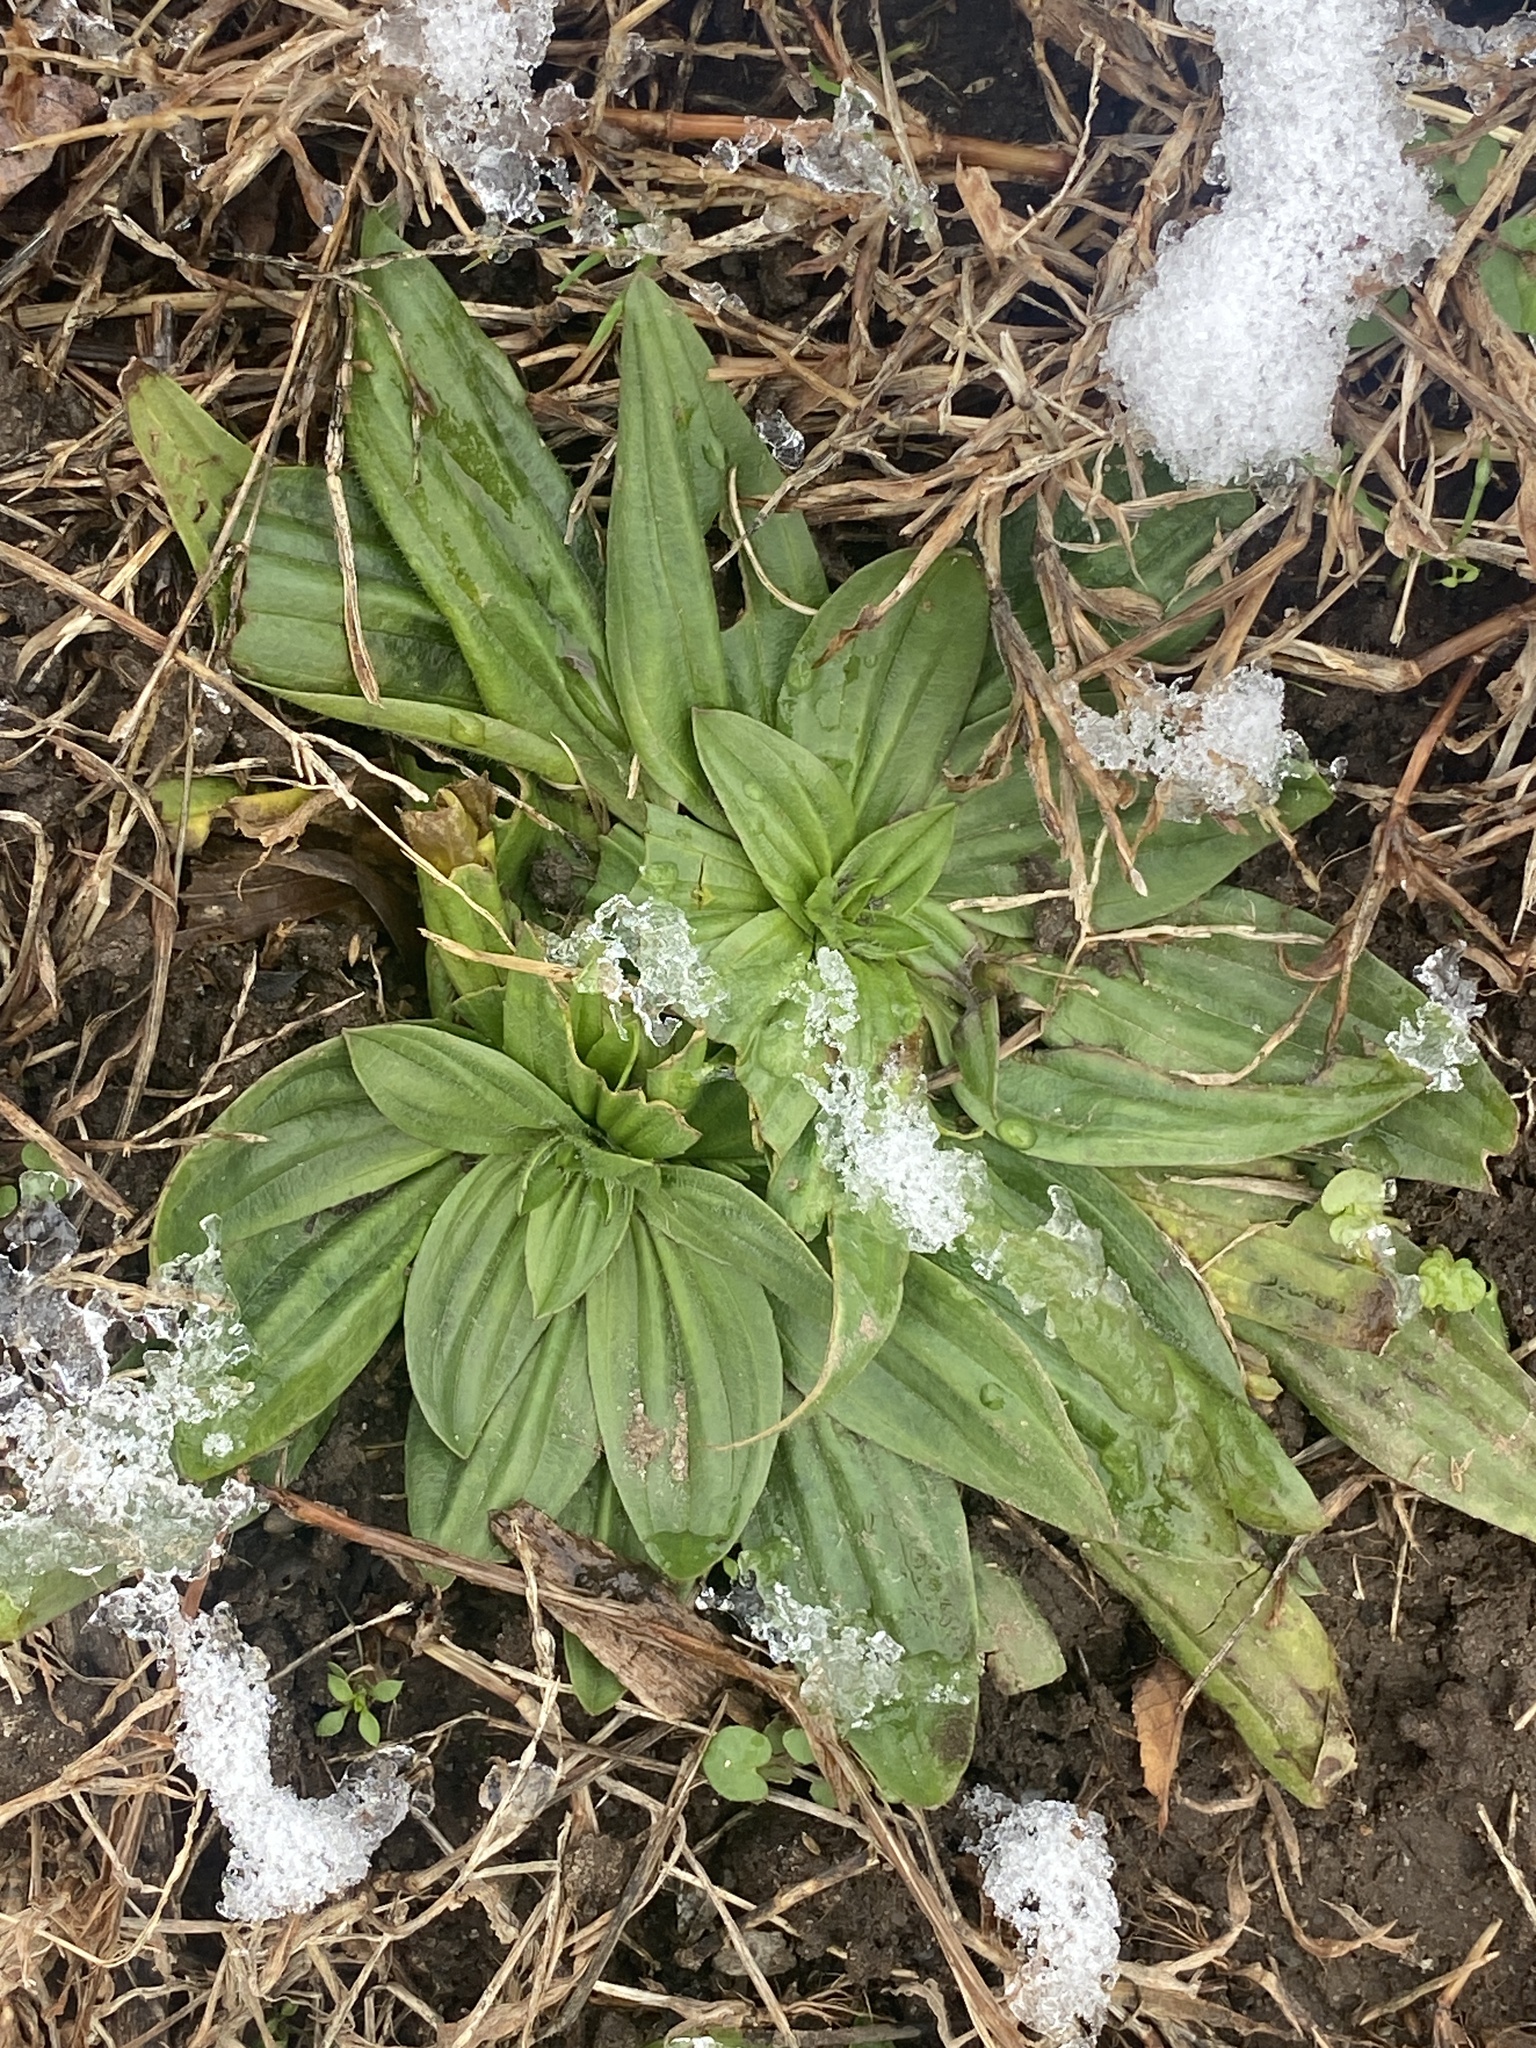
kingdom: Plantae
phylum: Tracheophyta
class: Magnoliopsida
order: Lamiales
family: Plantaginaceae
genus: Plantago
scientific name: Plantago lanceolata
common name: Ribwort plantain
